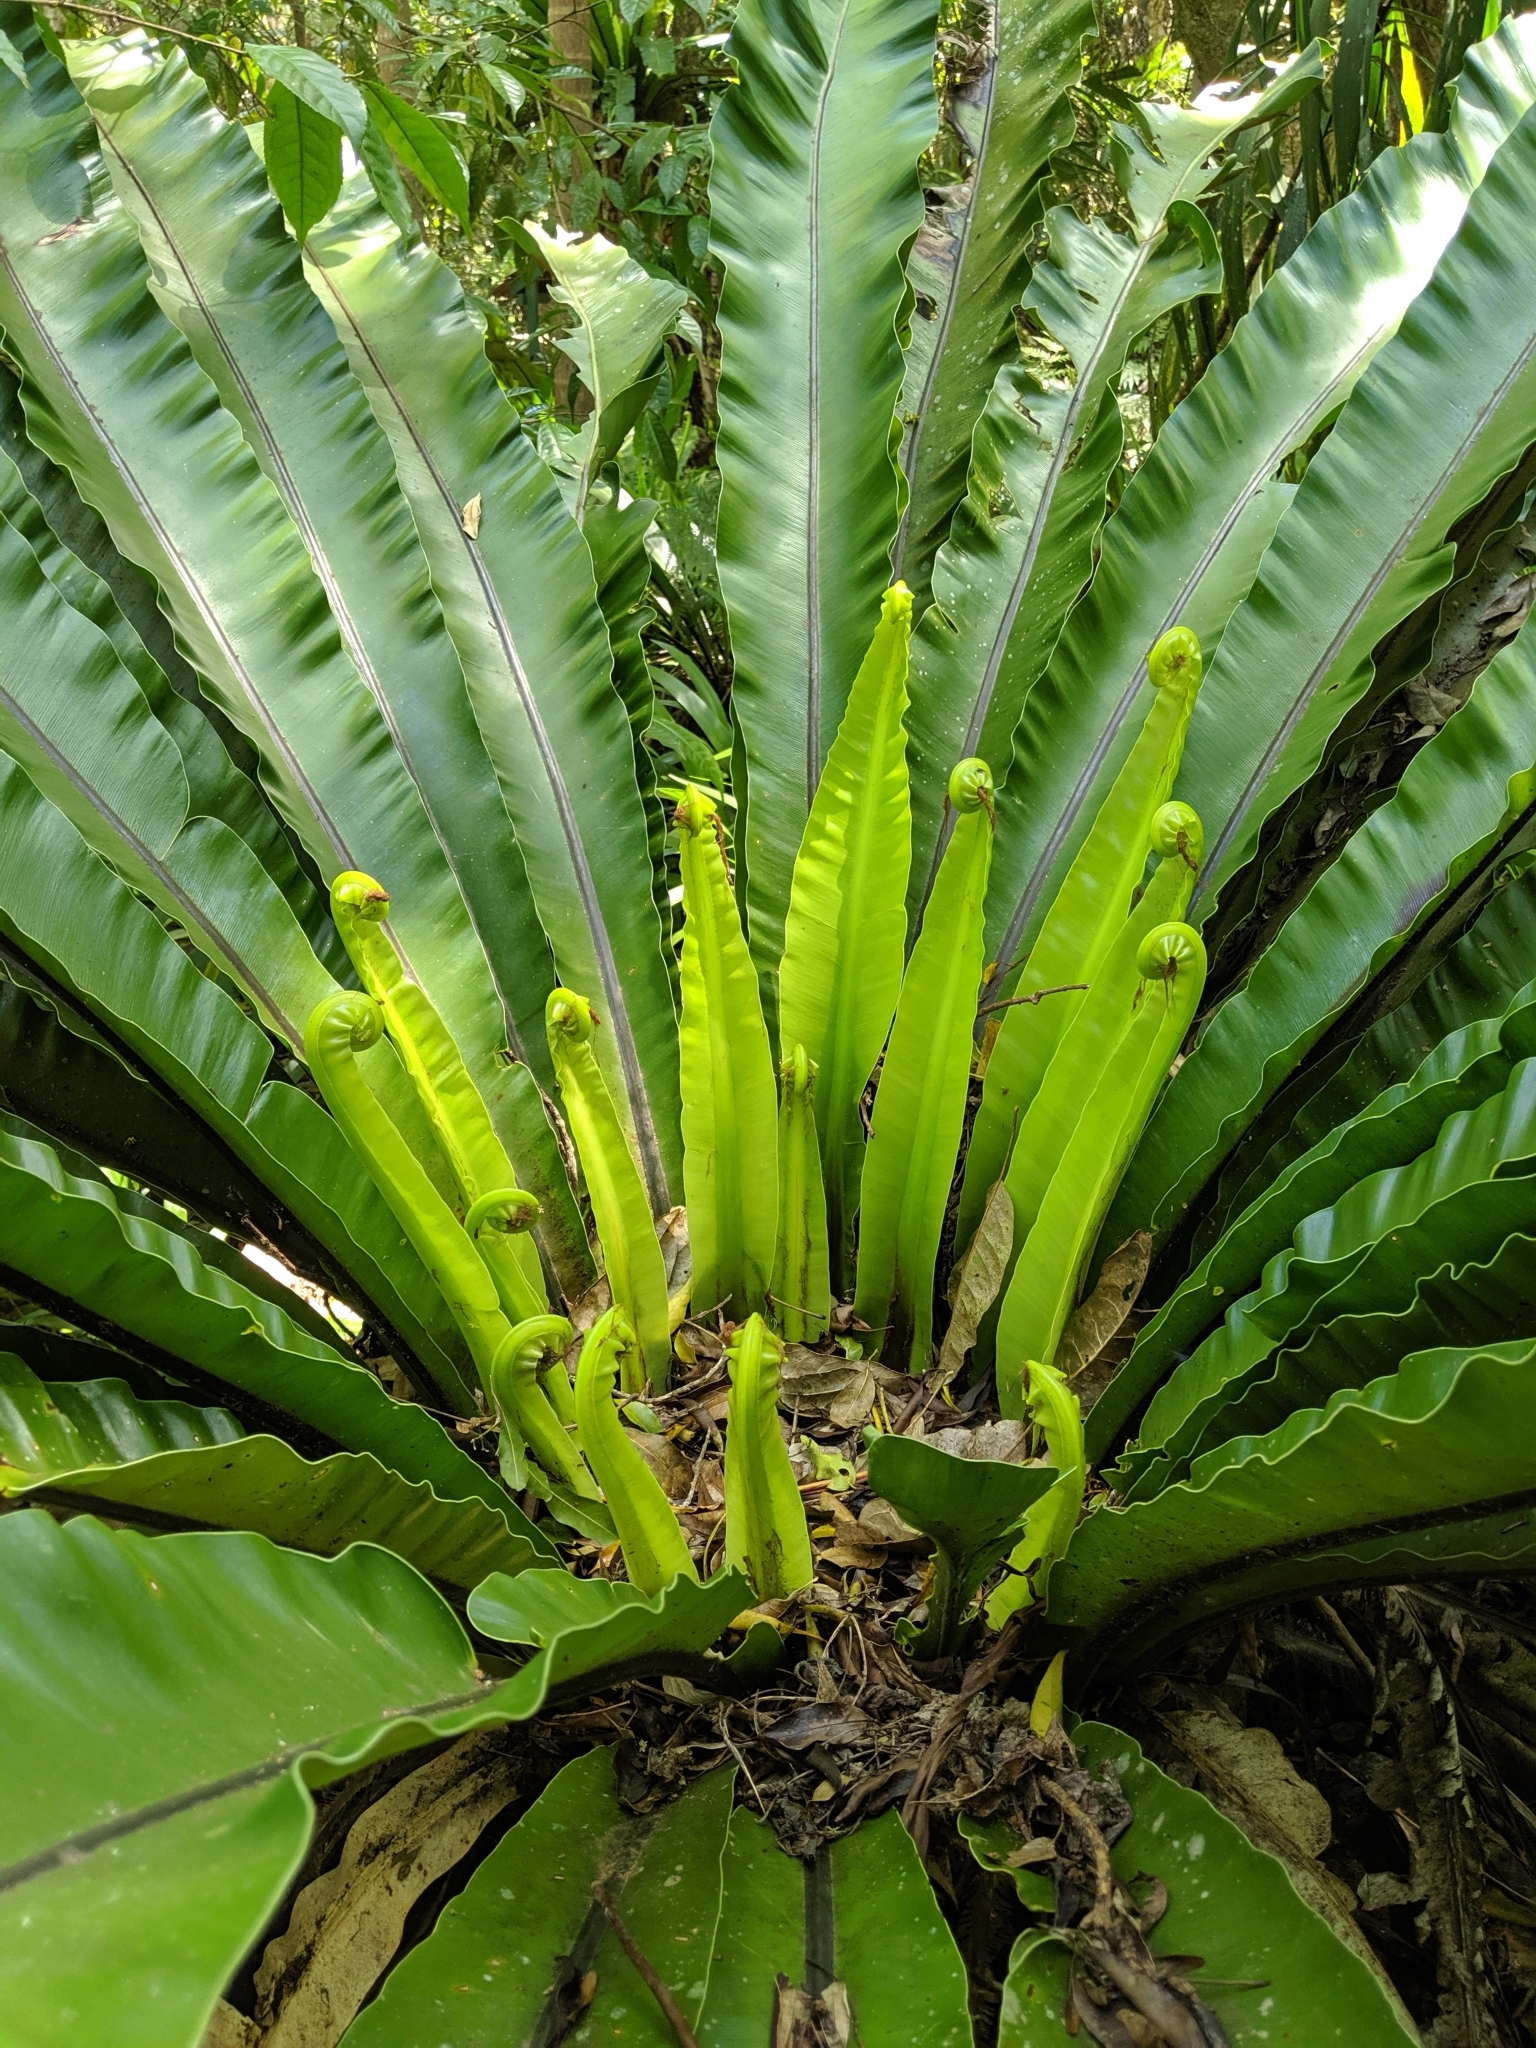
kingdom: Plantae
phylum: Tracheophyta
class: Polypodiopsida
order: Polypodiales
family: Aspleniaceae
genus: Asplenium
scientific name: Asplenium australasicum
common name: Bird's-nest fern
